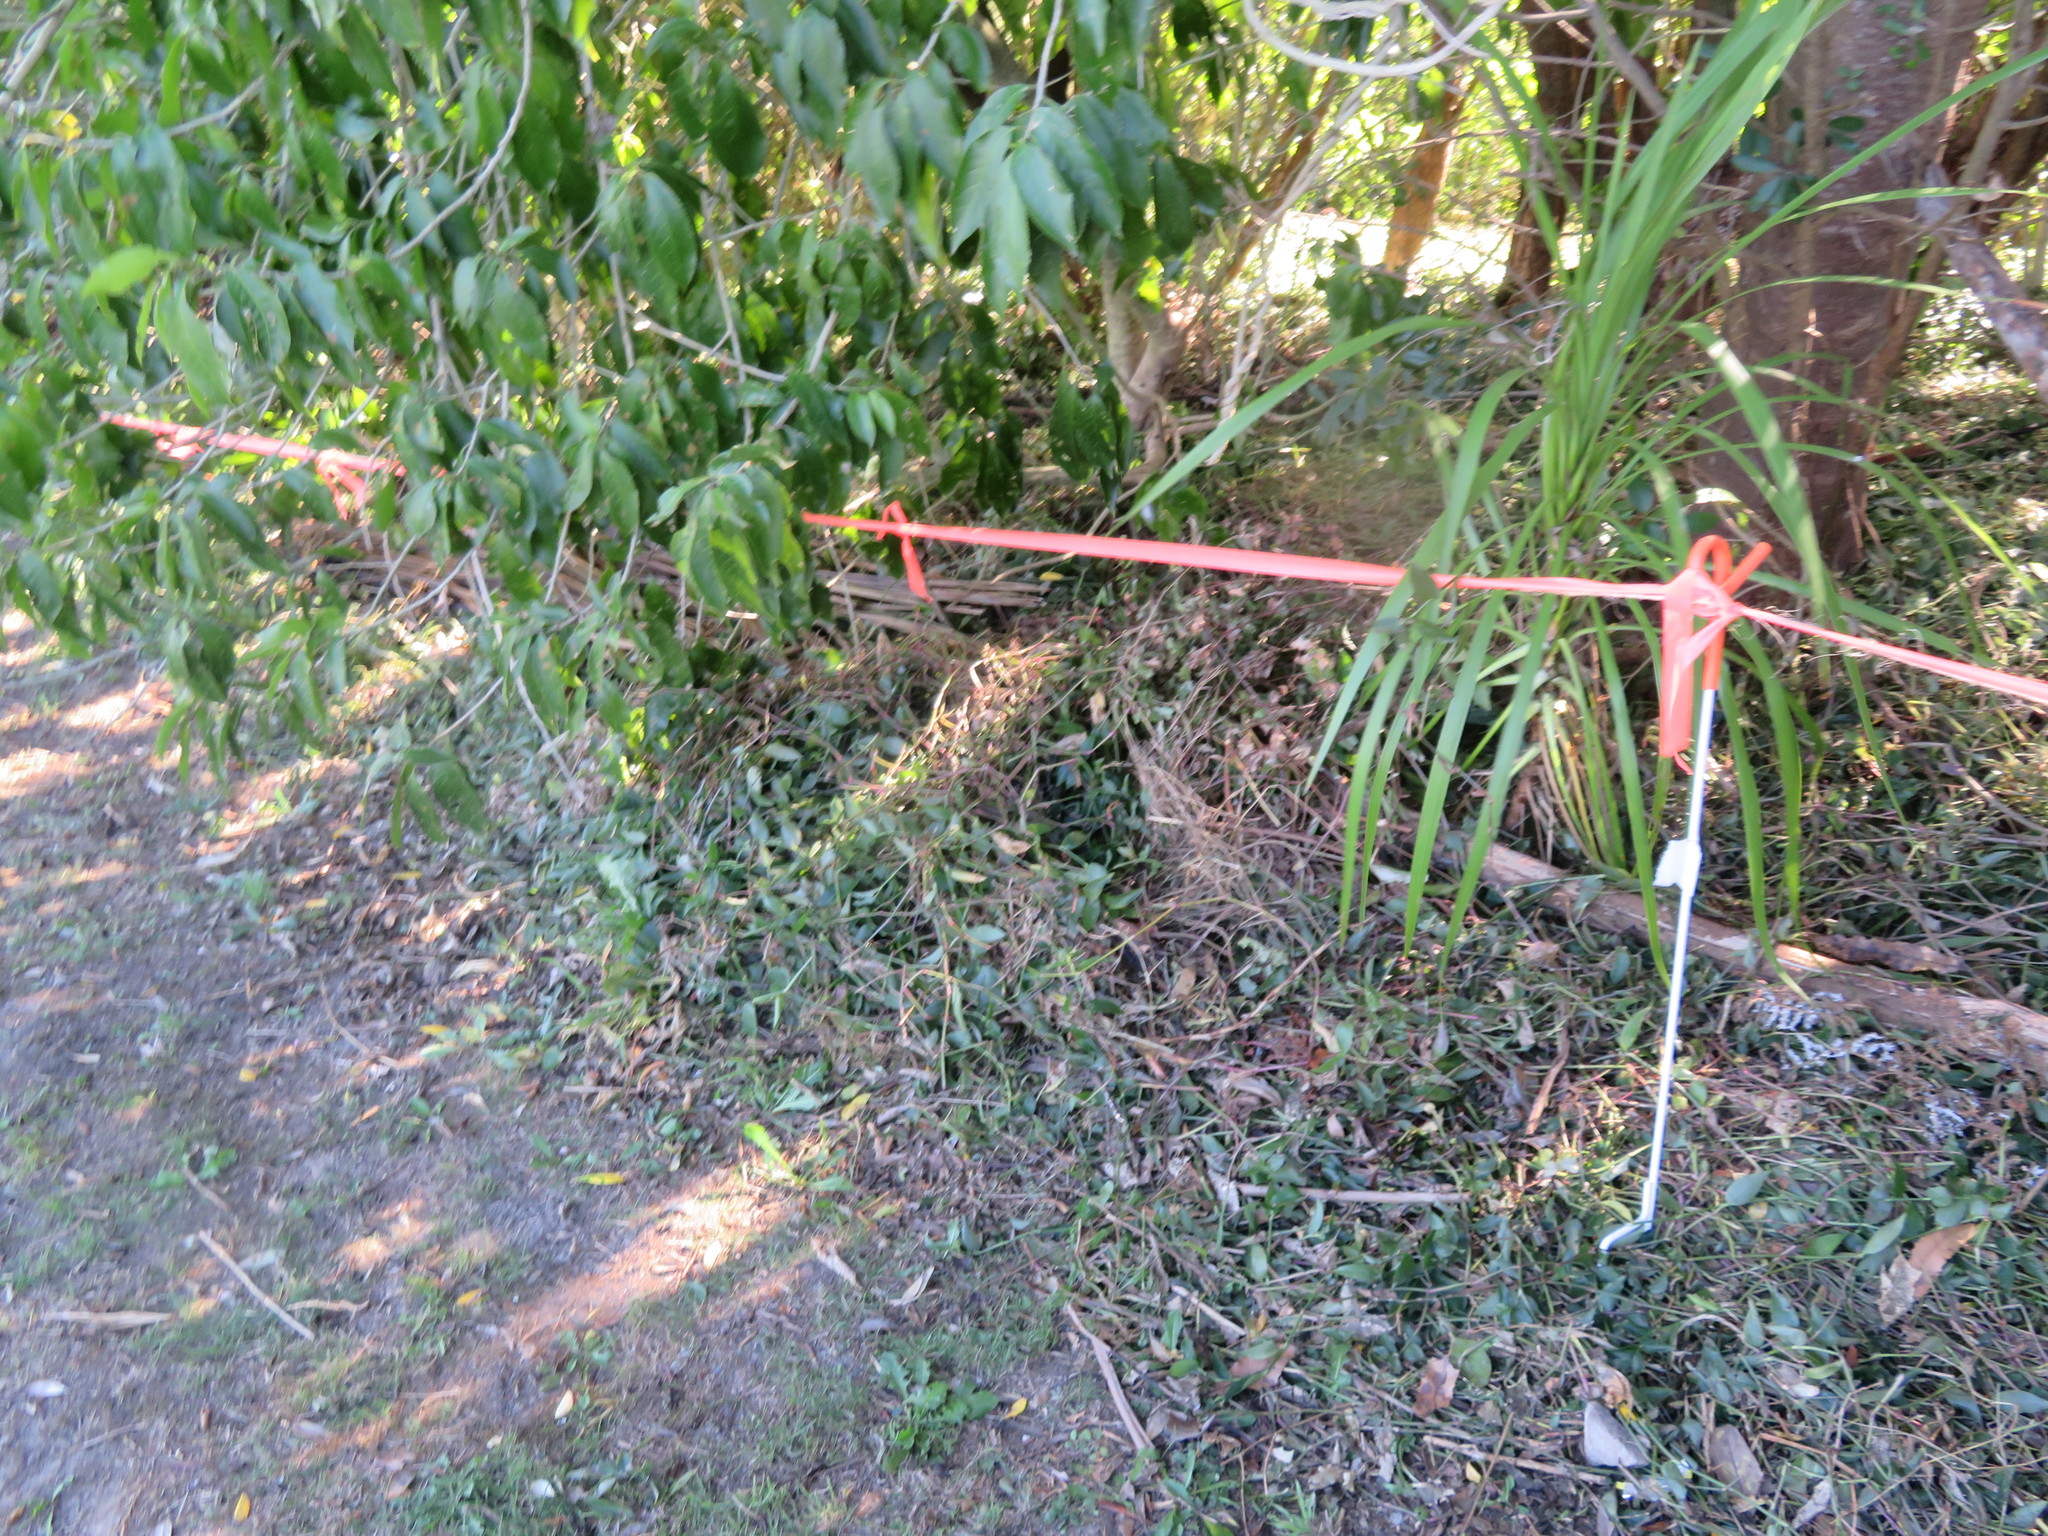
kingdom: Plantae
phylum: Tracheophyta
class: Magnoliopsida
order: Malpighiales
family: Violaceae
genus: Melicytus
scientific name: Melicytus ramiflorus
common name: Mahoe
